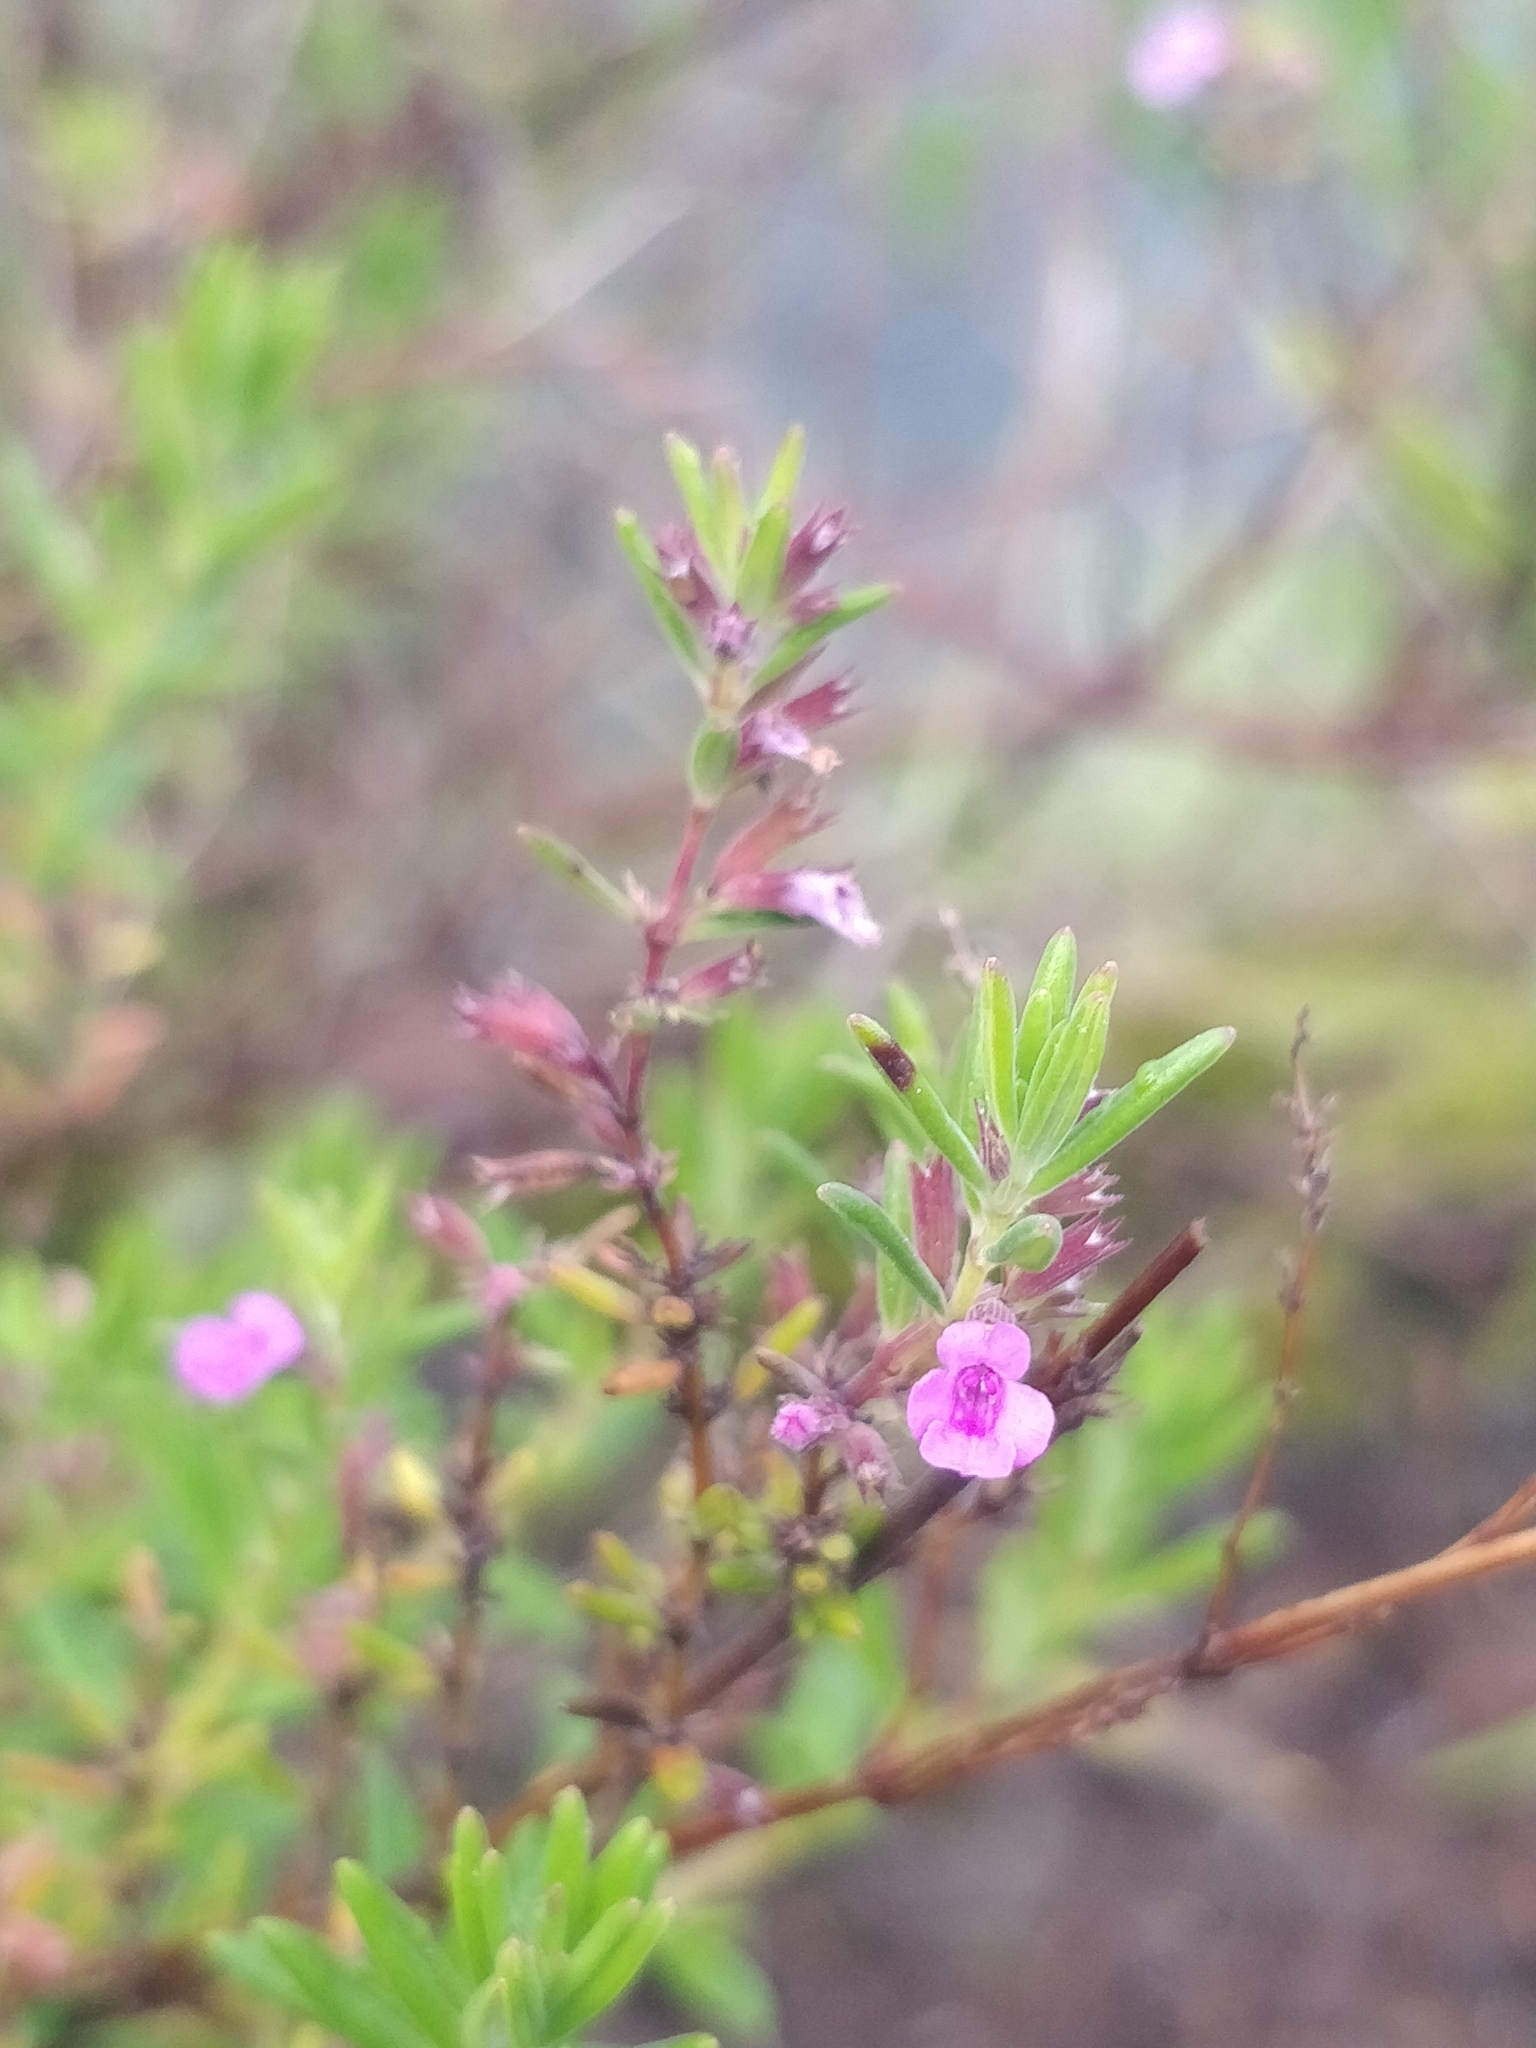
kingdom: Plantae
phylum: Tracheophyta
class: Magnoliopsida
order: Lamiales
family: Lamiaceae
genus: Micromeria
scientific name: Micromeria maderensis
